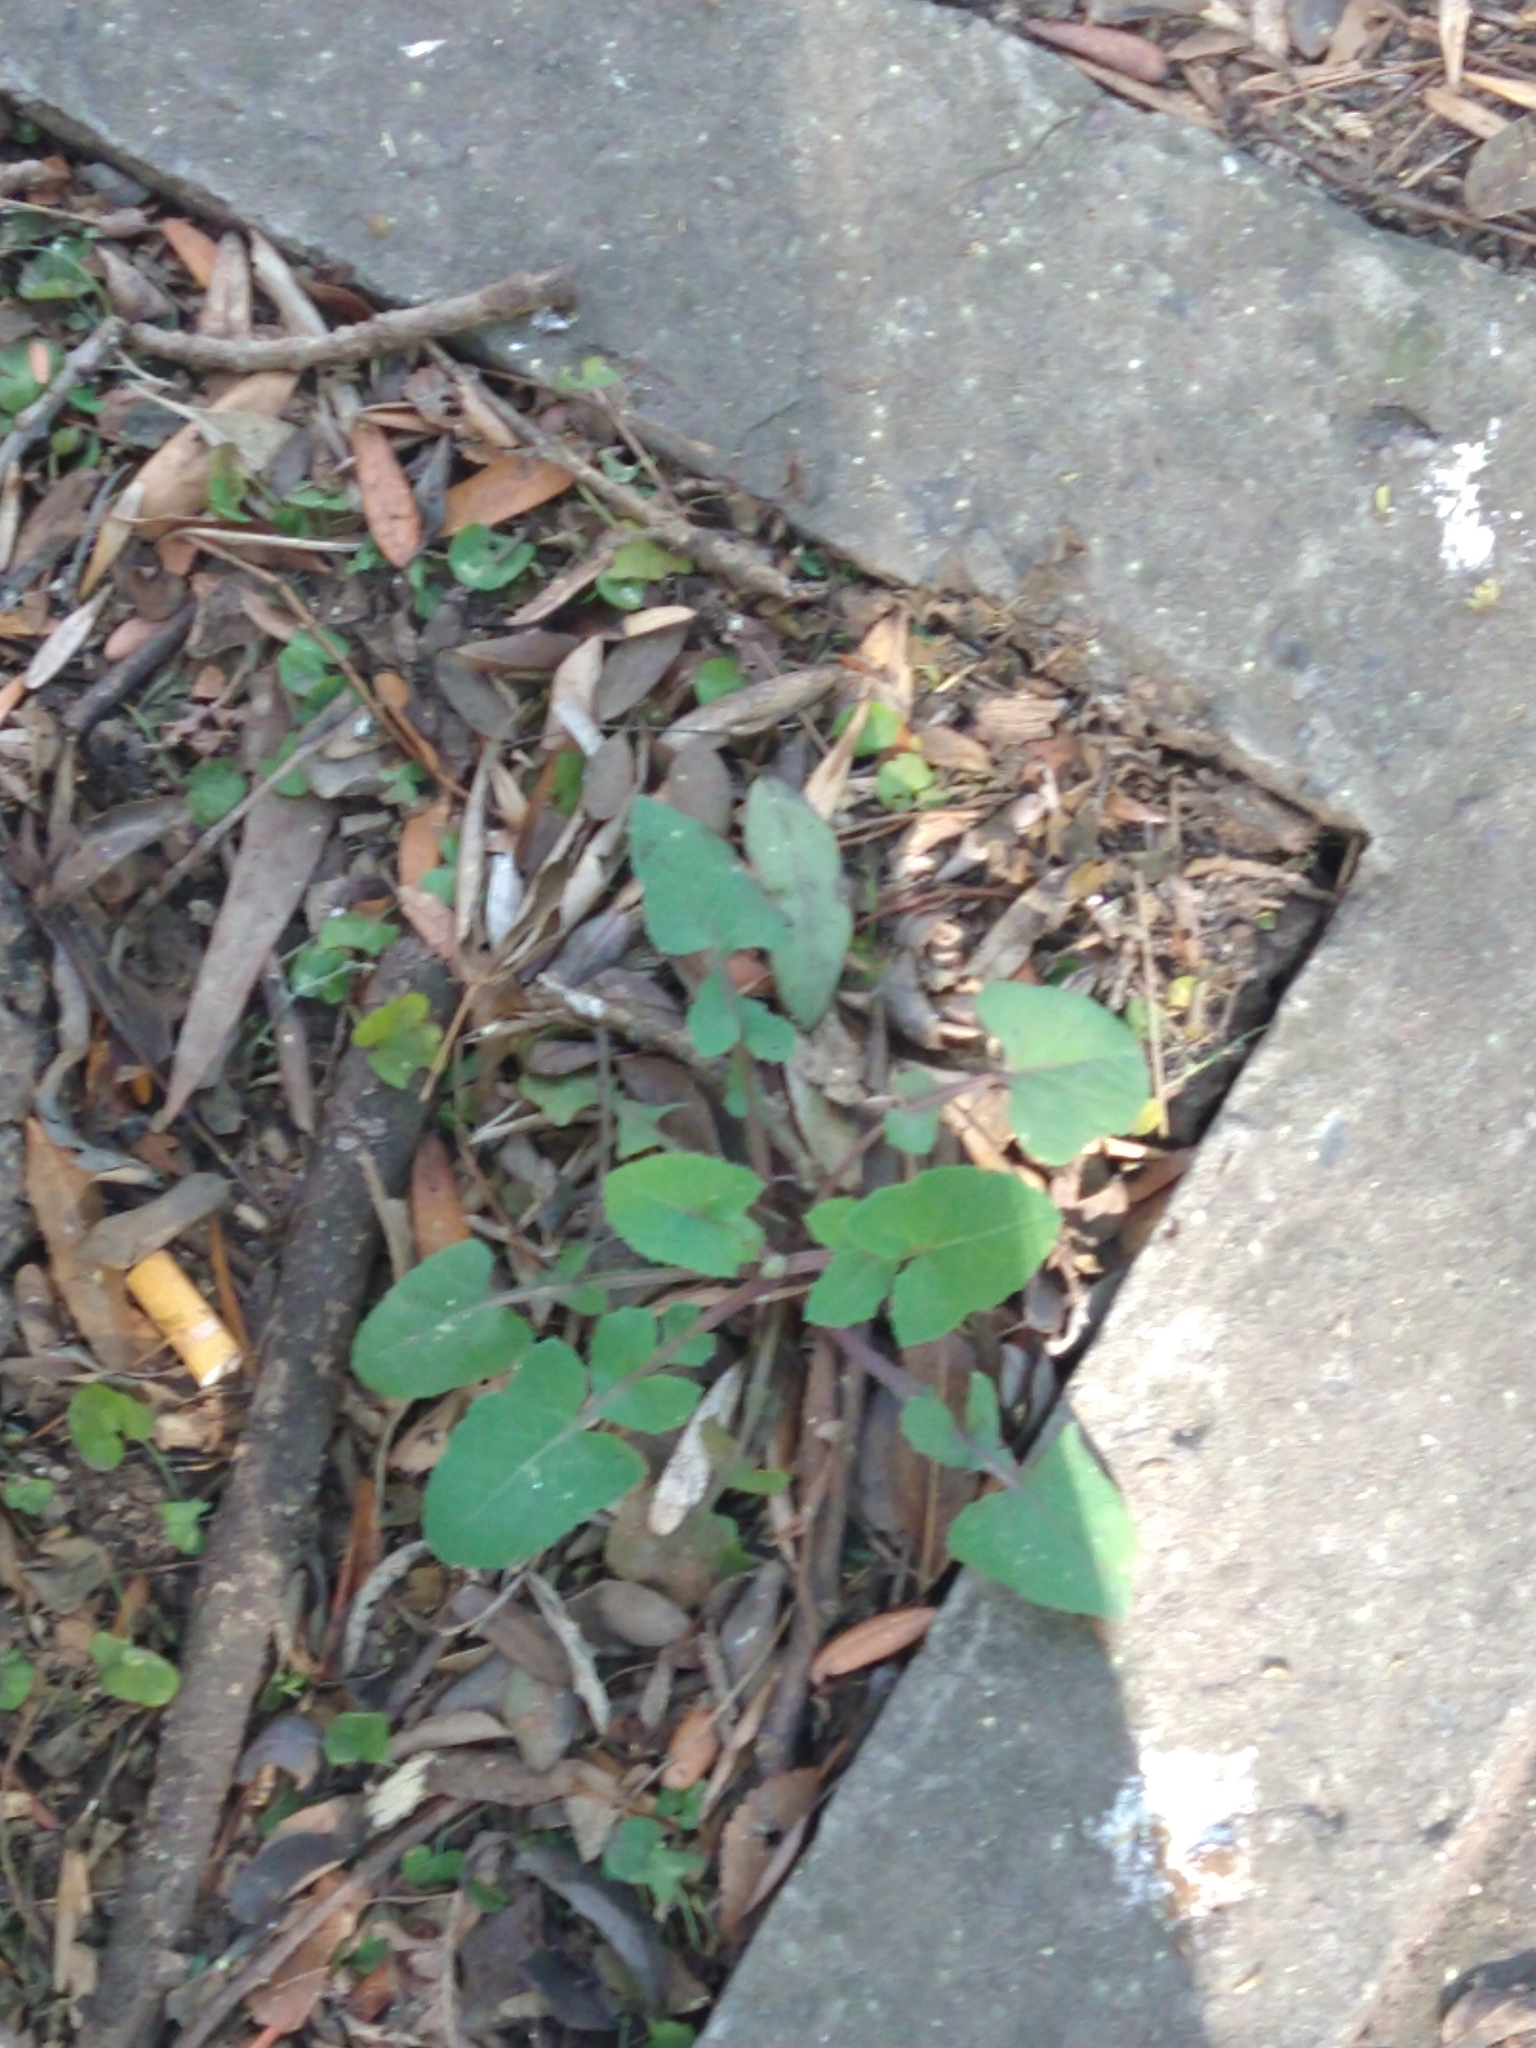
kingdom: Plantae
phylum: Tracheophyta
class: Magnoliopsida
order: Asterales
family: Asteraceae
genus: Sonchus
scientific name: Sonchus oleraceus
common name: Common sowthistle
